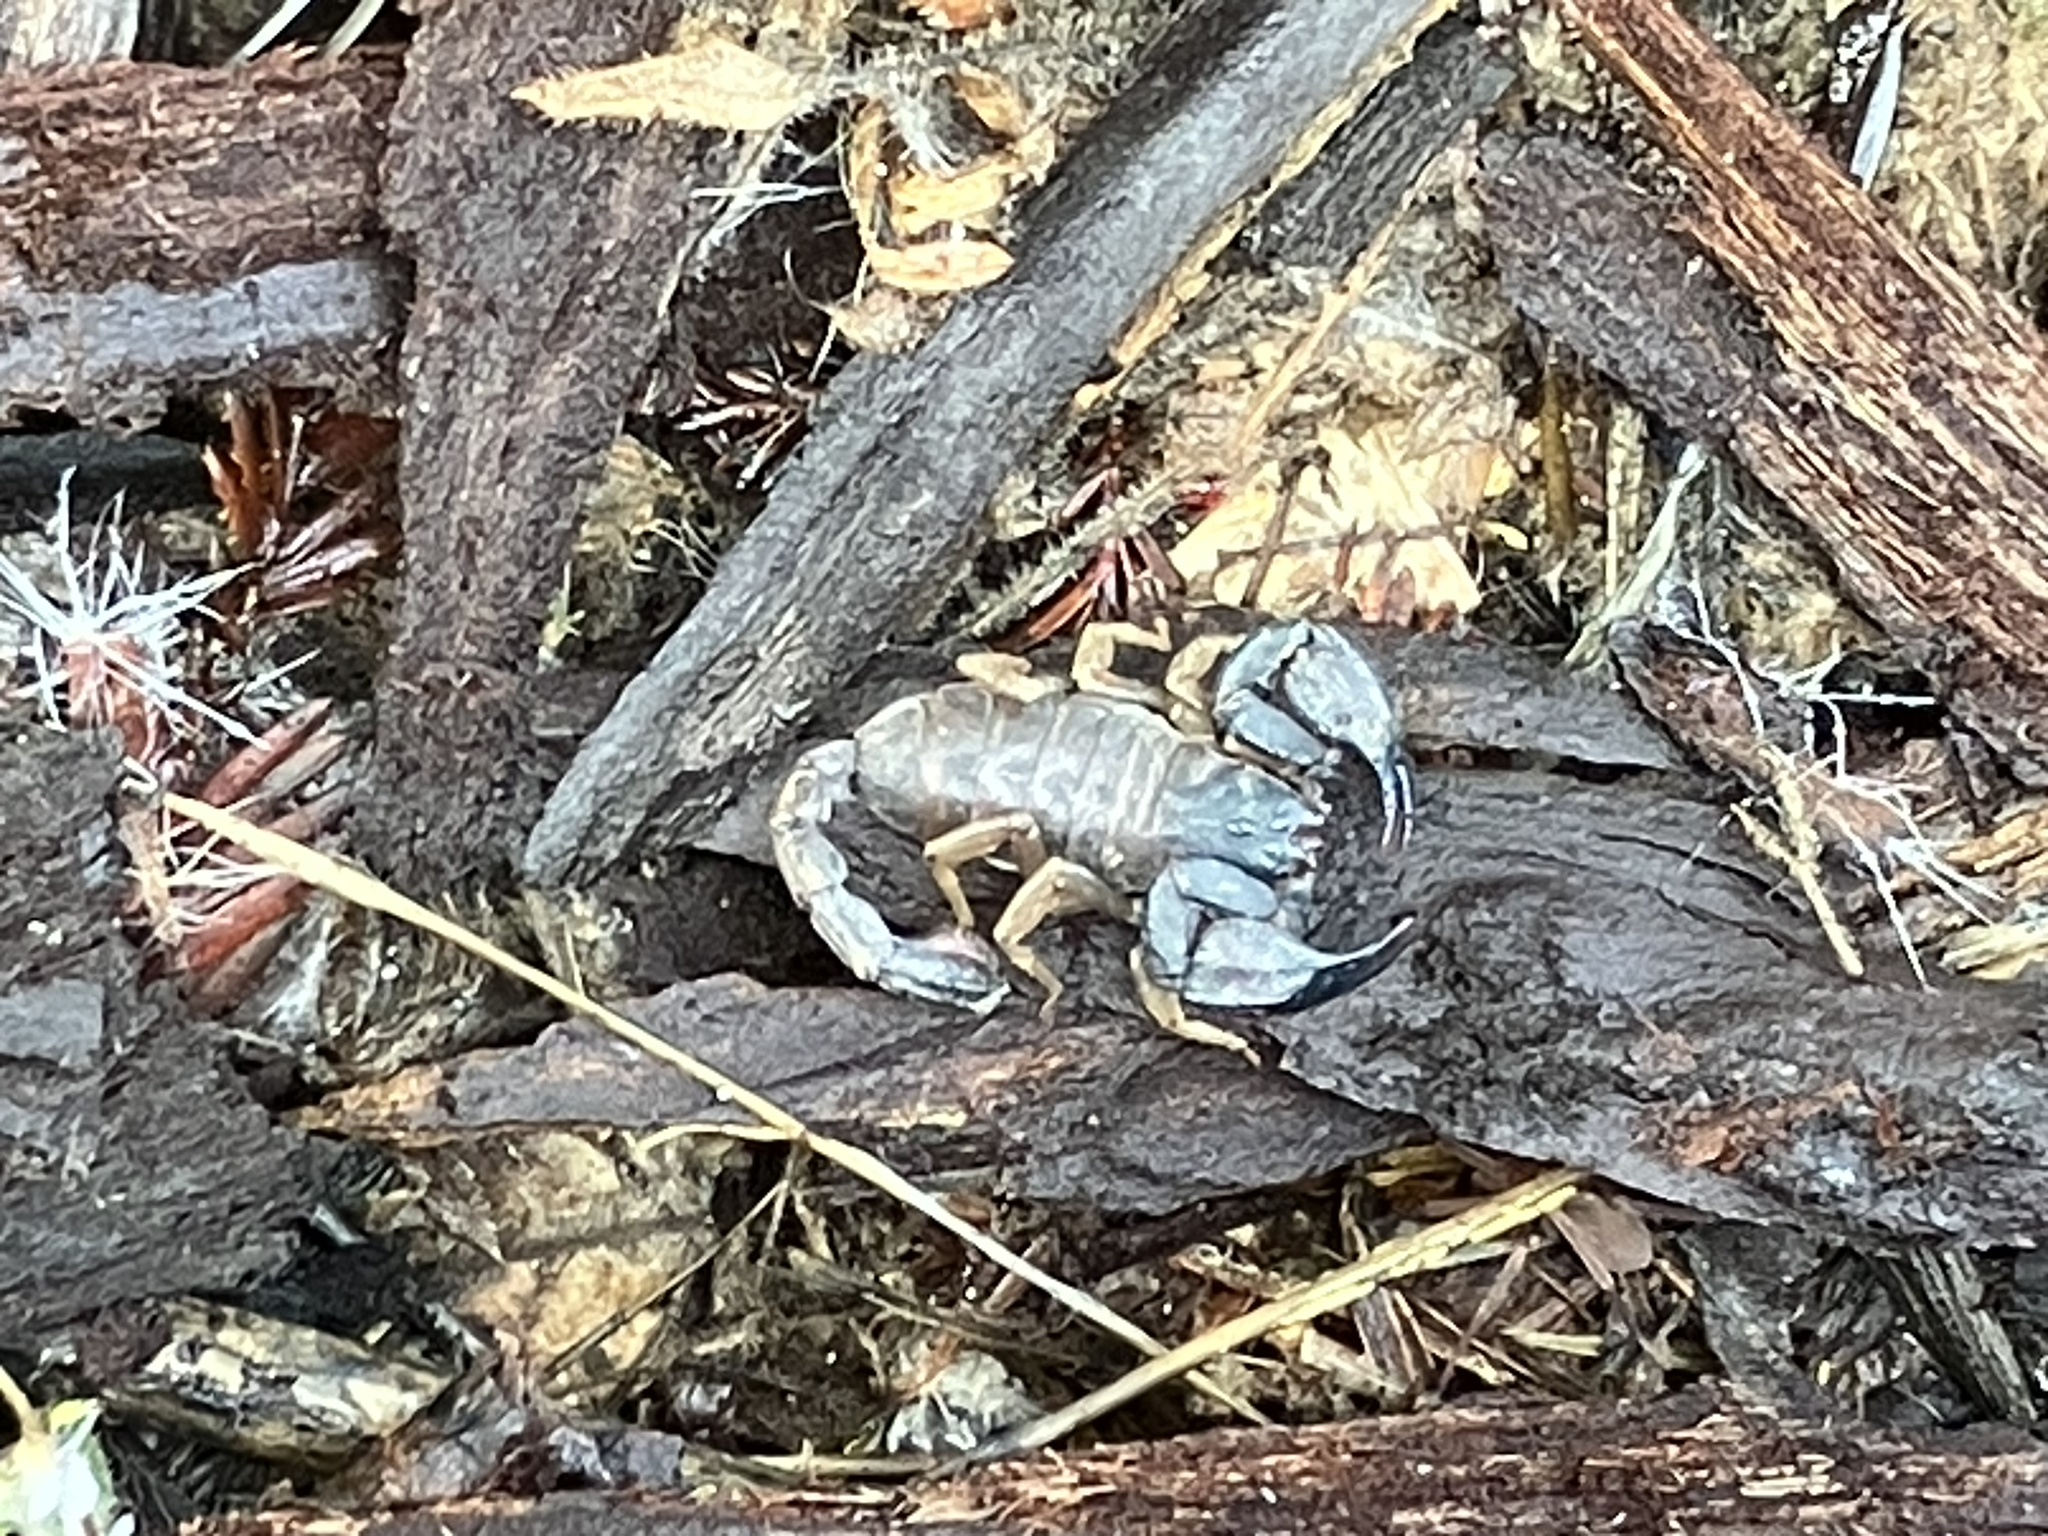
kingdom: Animalia
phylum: Arthropoda
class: Arachnida
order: Scorpiones
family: Chactidae
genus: Uroctonus
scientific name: Uroctonus mordax
